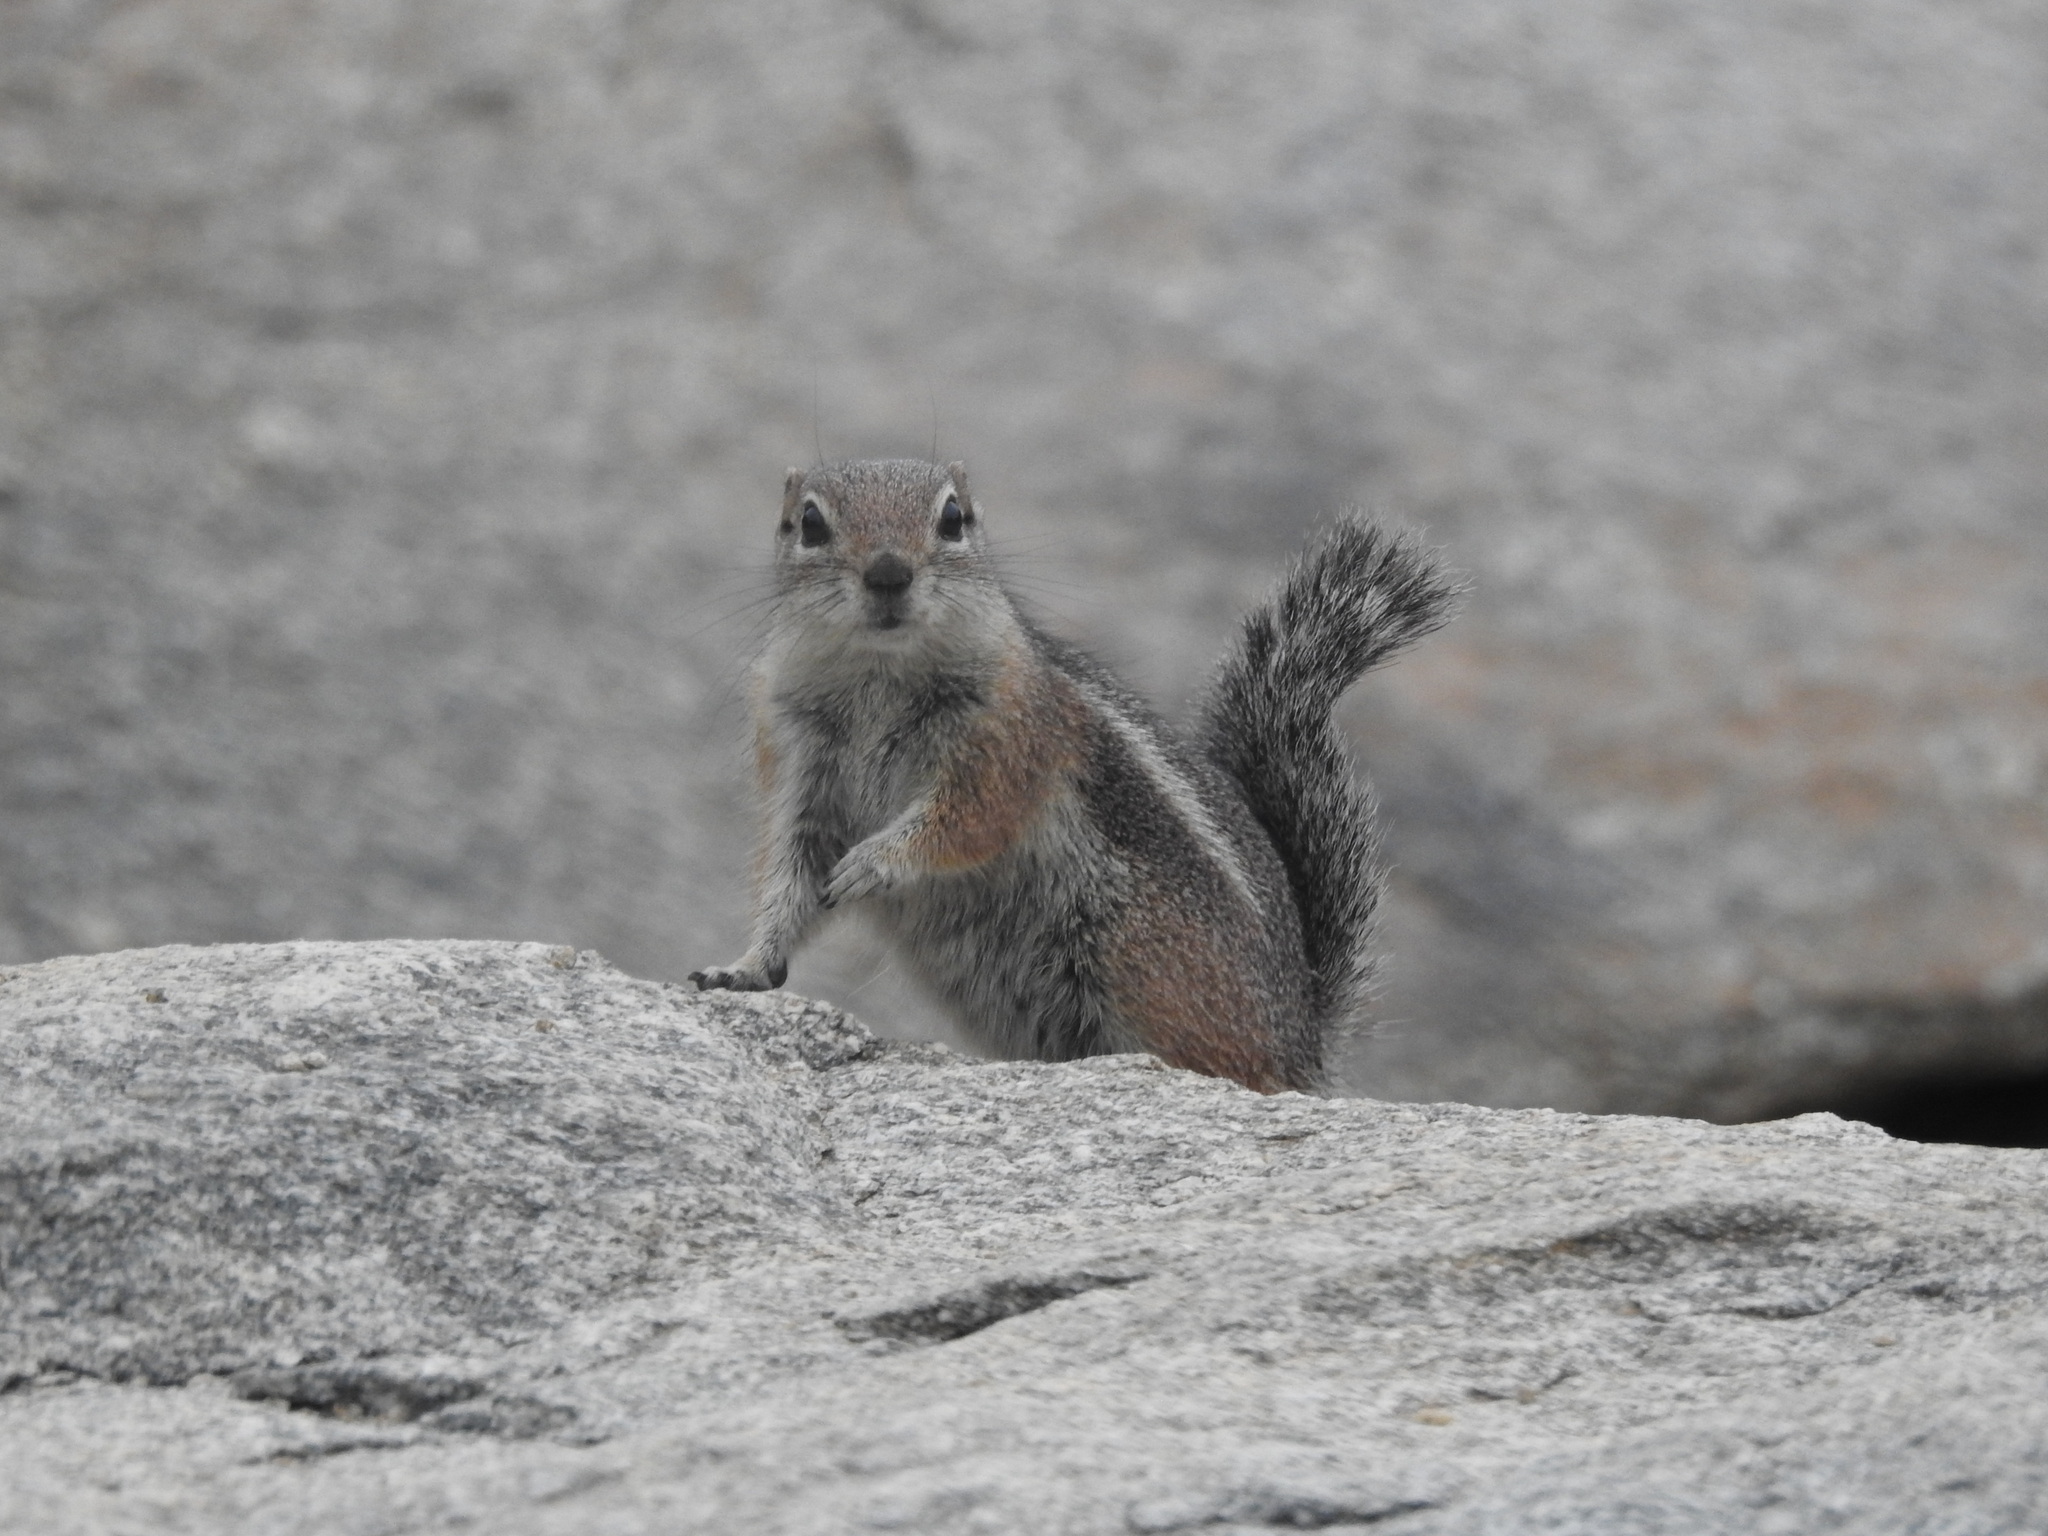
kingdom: Animalia
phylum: Chordata
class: Mammalia
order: Rodentia
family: Sciuridae
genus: Ammospermophilus
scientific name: Ammospermophilus harrisii
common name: Harris's antelope squirrel
